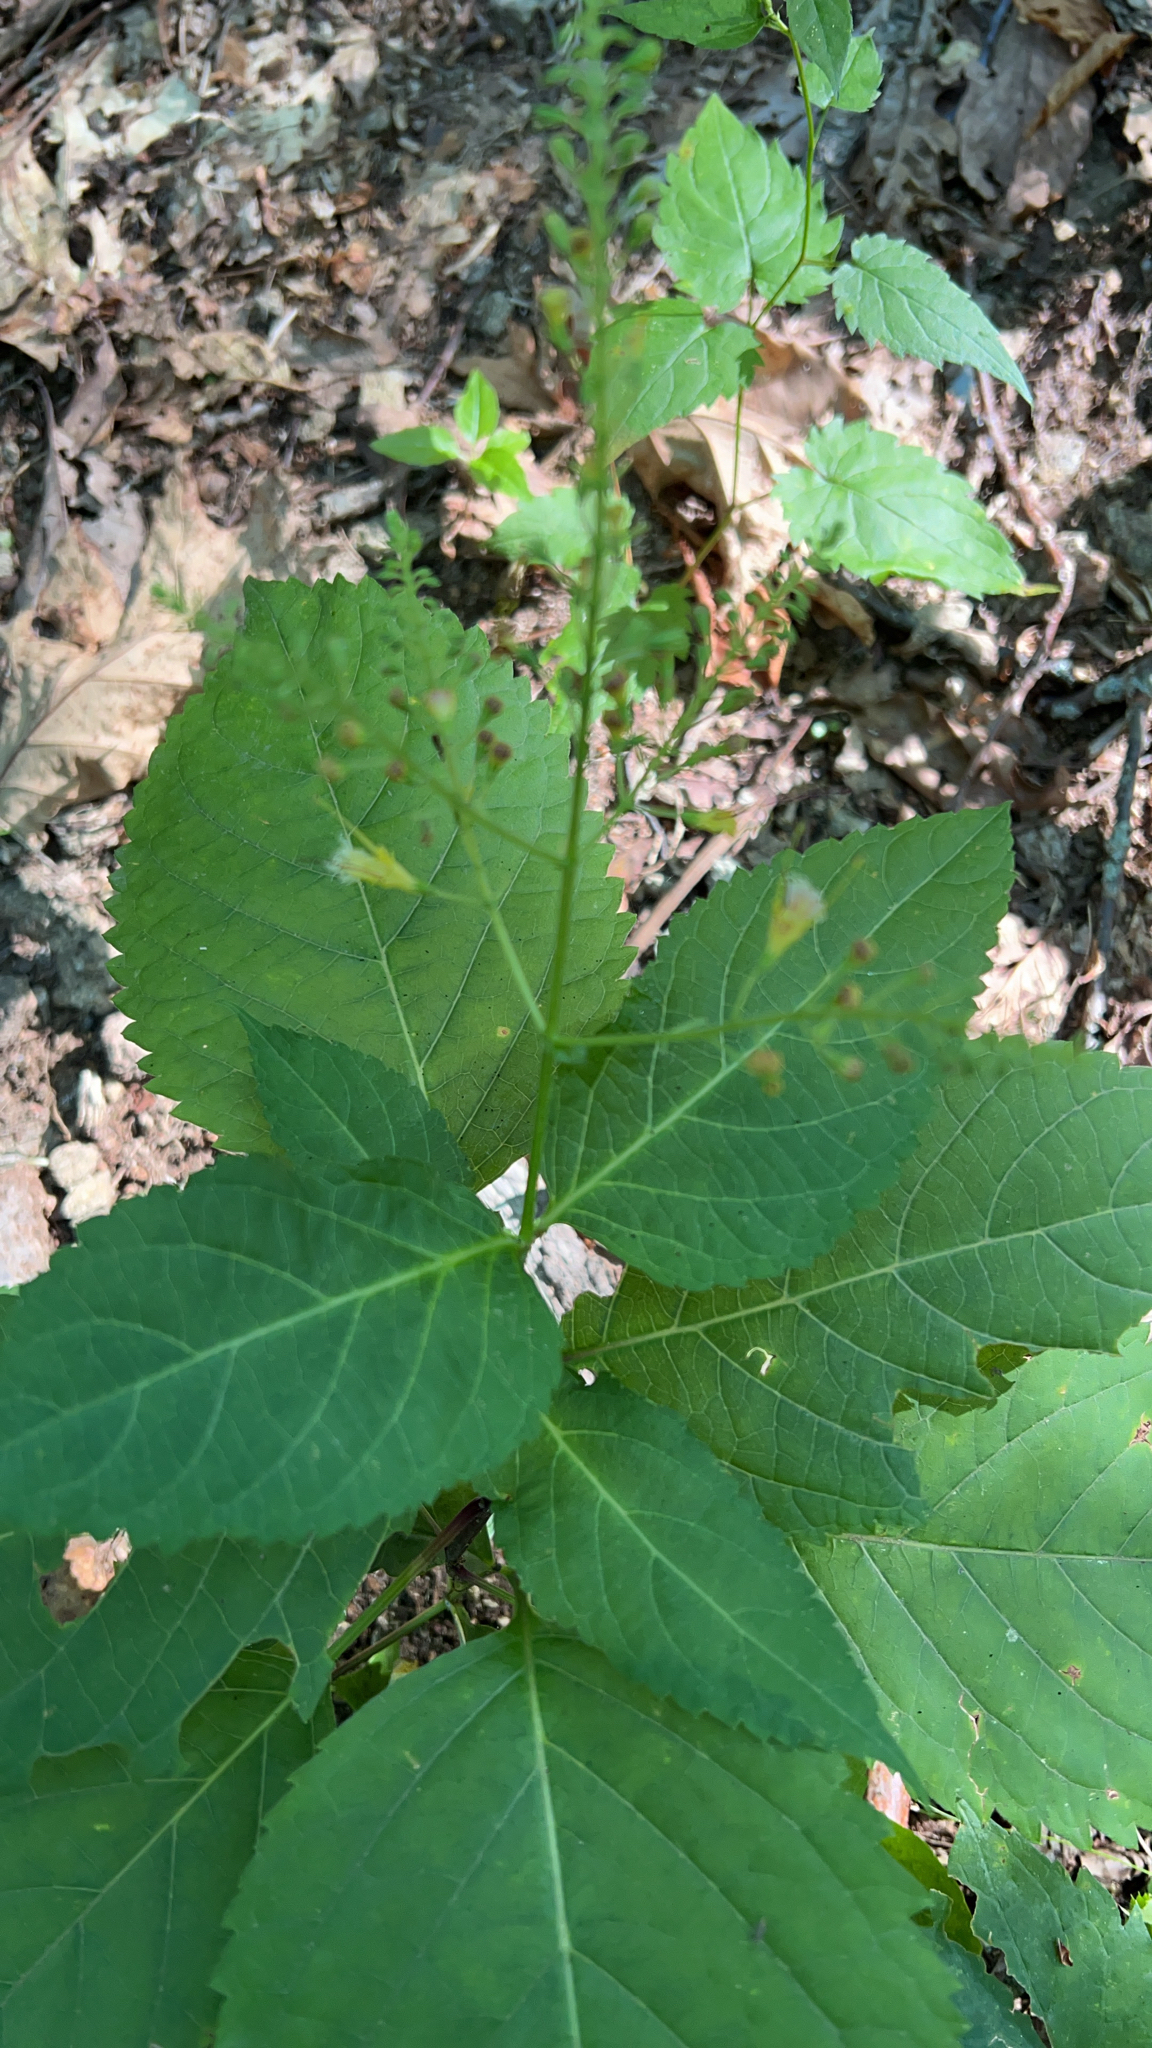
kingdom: Plantae
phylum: Tracheophyta
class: Magnoliopsida
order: Lamiales
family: Lamiaceae
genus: Collinsonia
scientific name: Collinsonia canadensis
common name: Northern horsebalm
